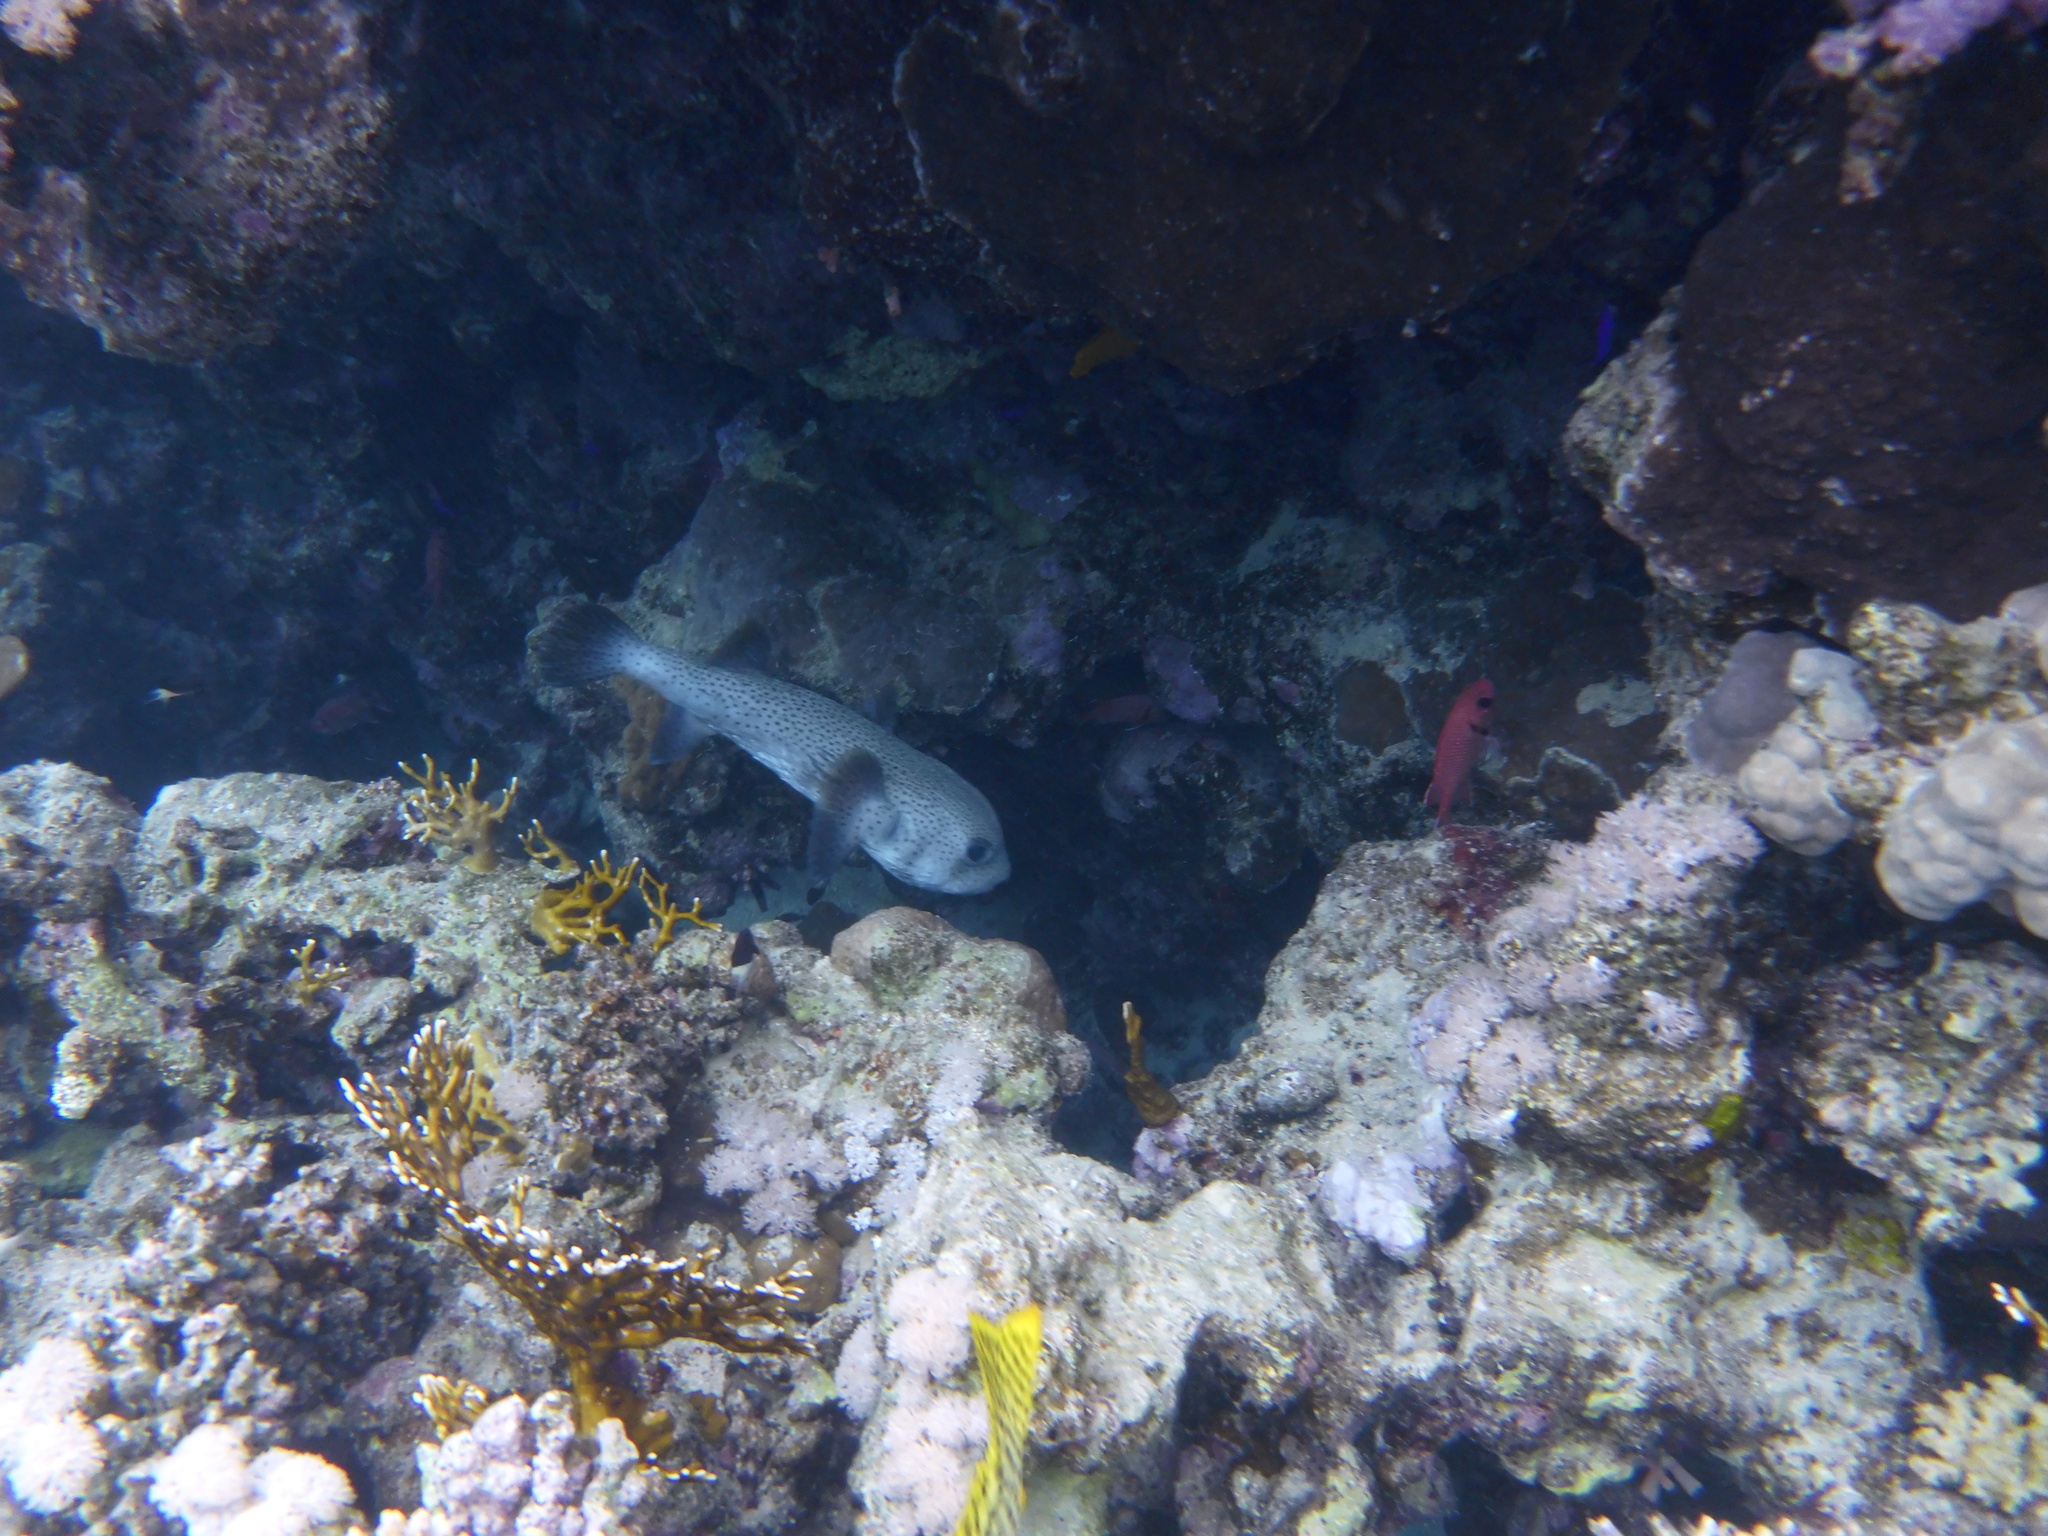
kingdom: Animalia
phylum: Chordata
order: Tetraodontiformes
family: Diodontidae
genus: Diodon
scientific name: Diodon hystrix
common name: Giant porcupinefish
